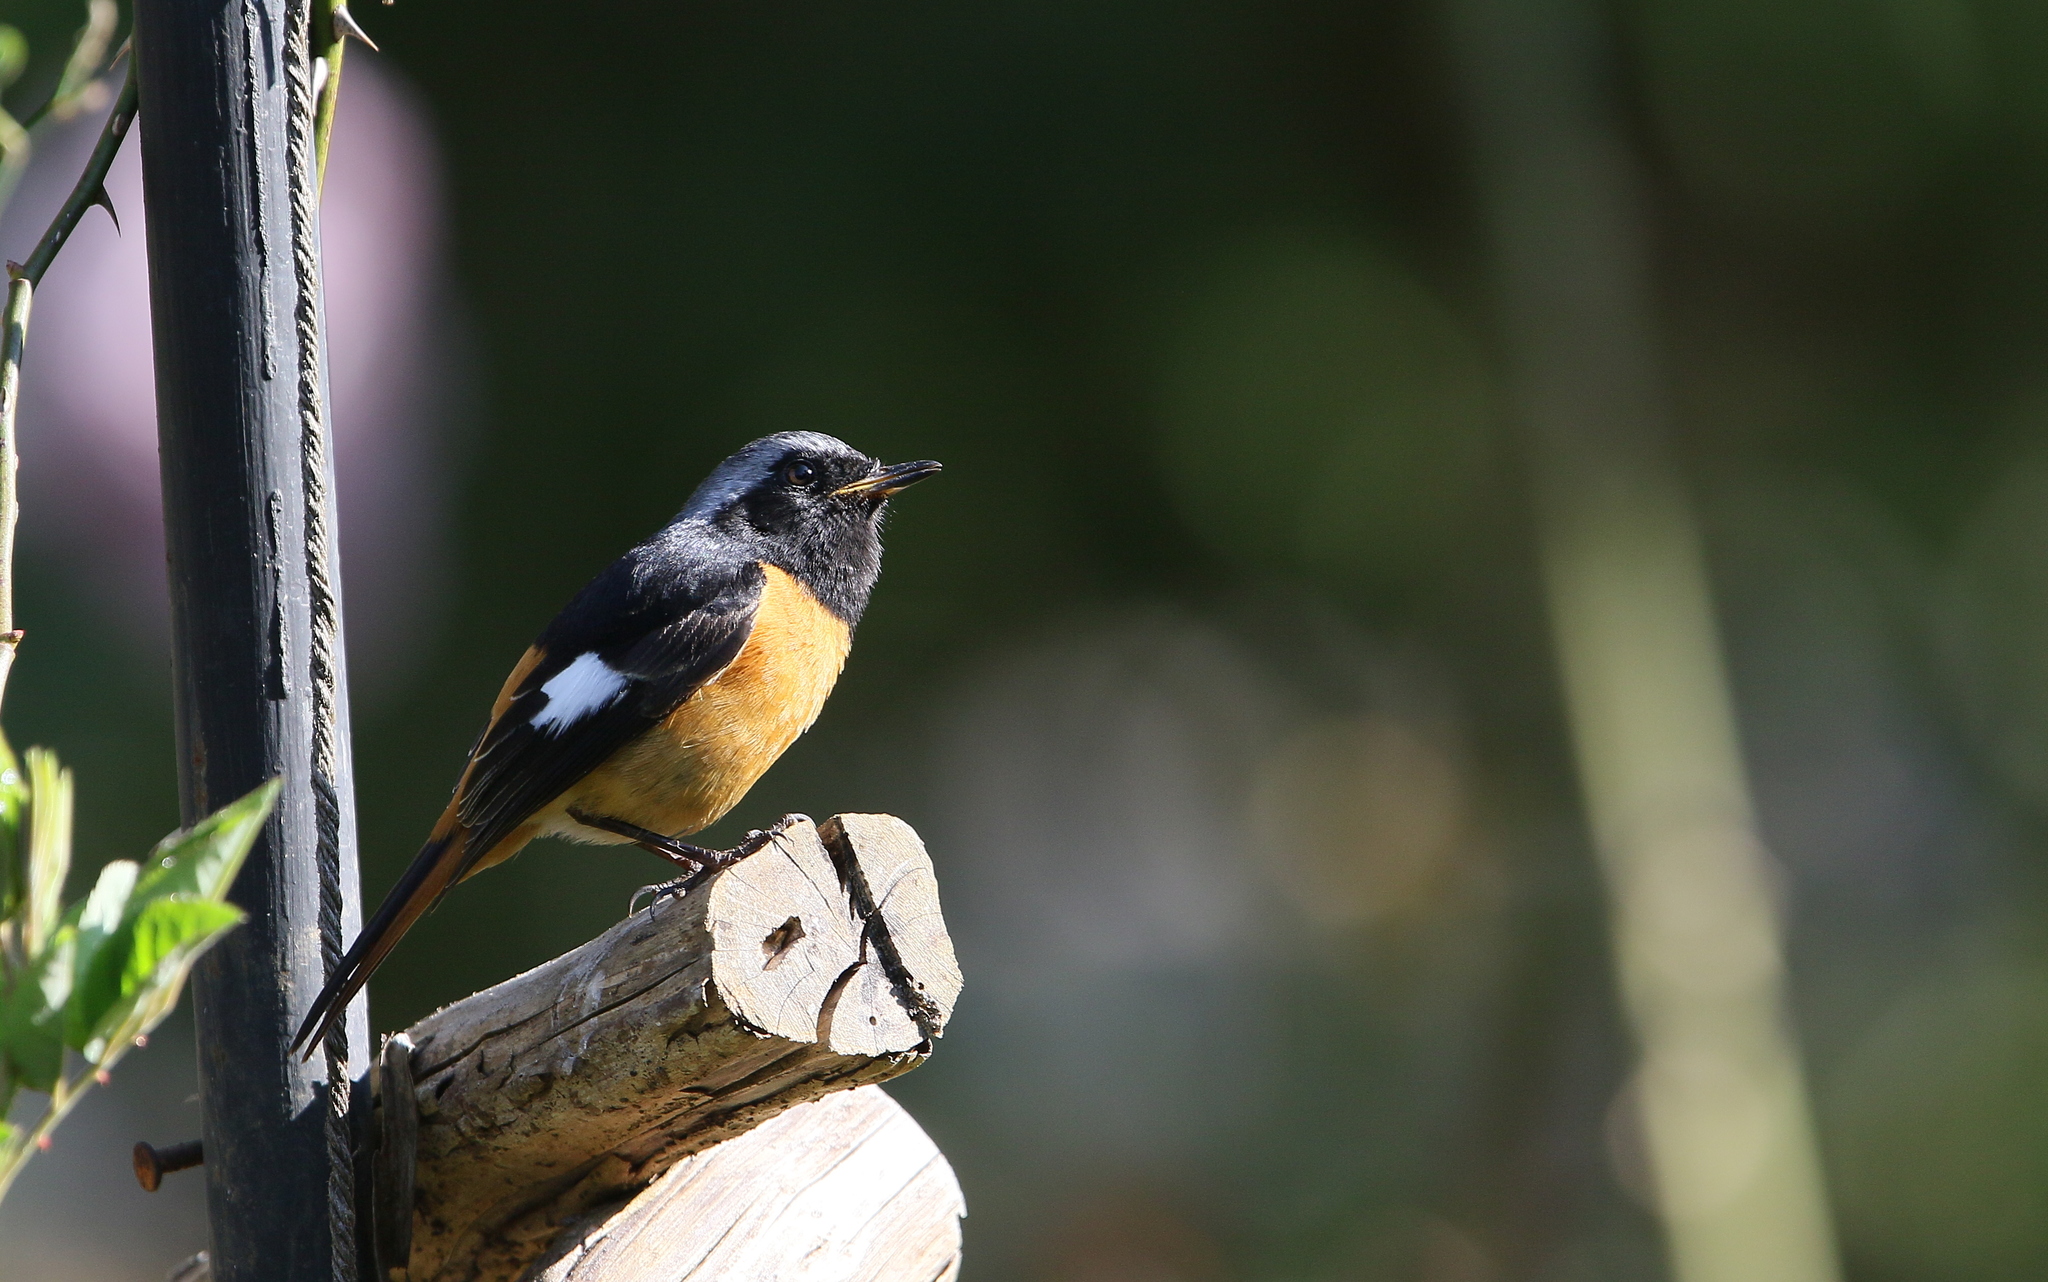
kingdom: Animalia
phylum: Chordata
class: Aves
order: Passeriformes
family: Muscicapidae
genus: Phoenicurus
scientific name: Phoenicurus auroreus
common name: Daurian redstart
